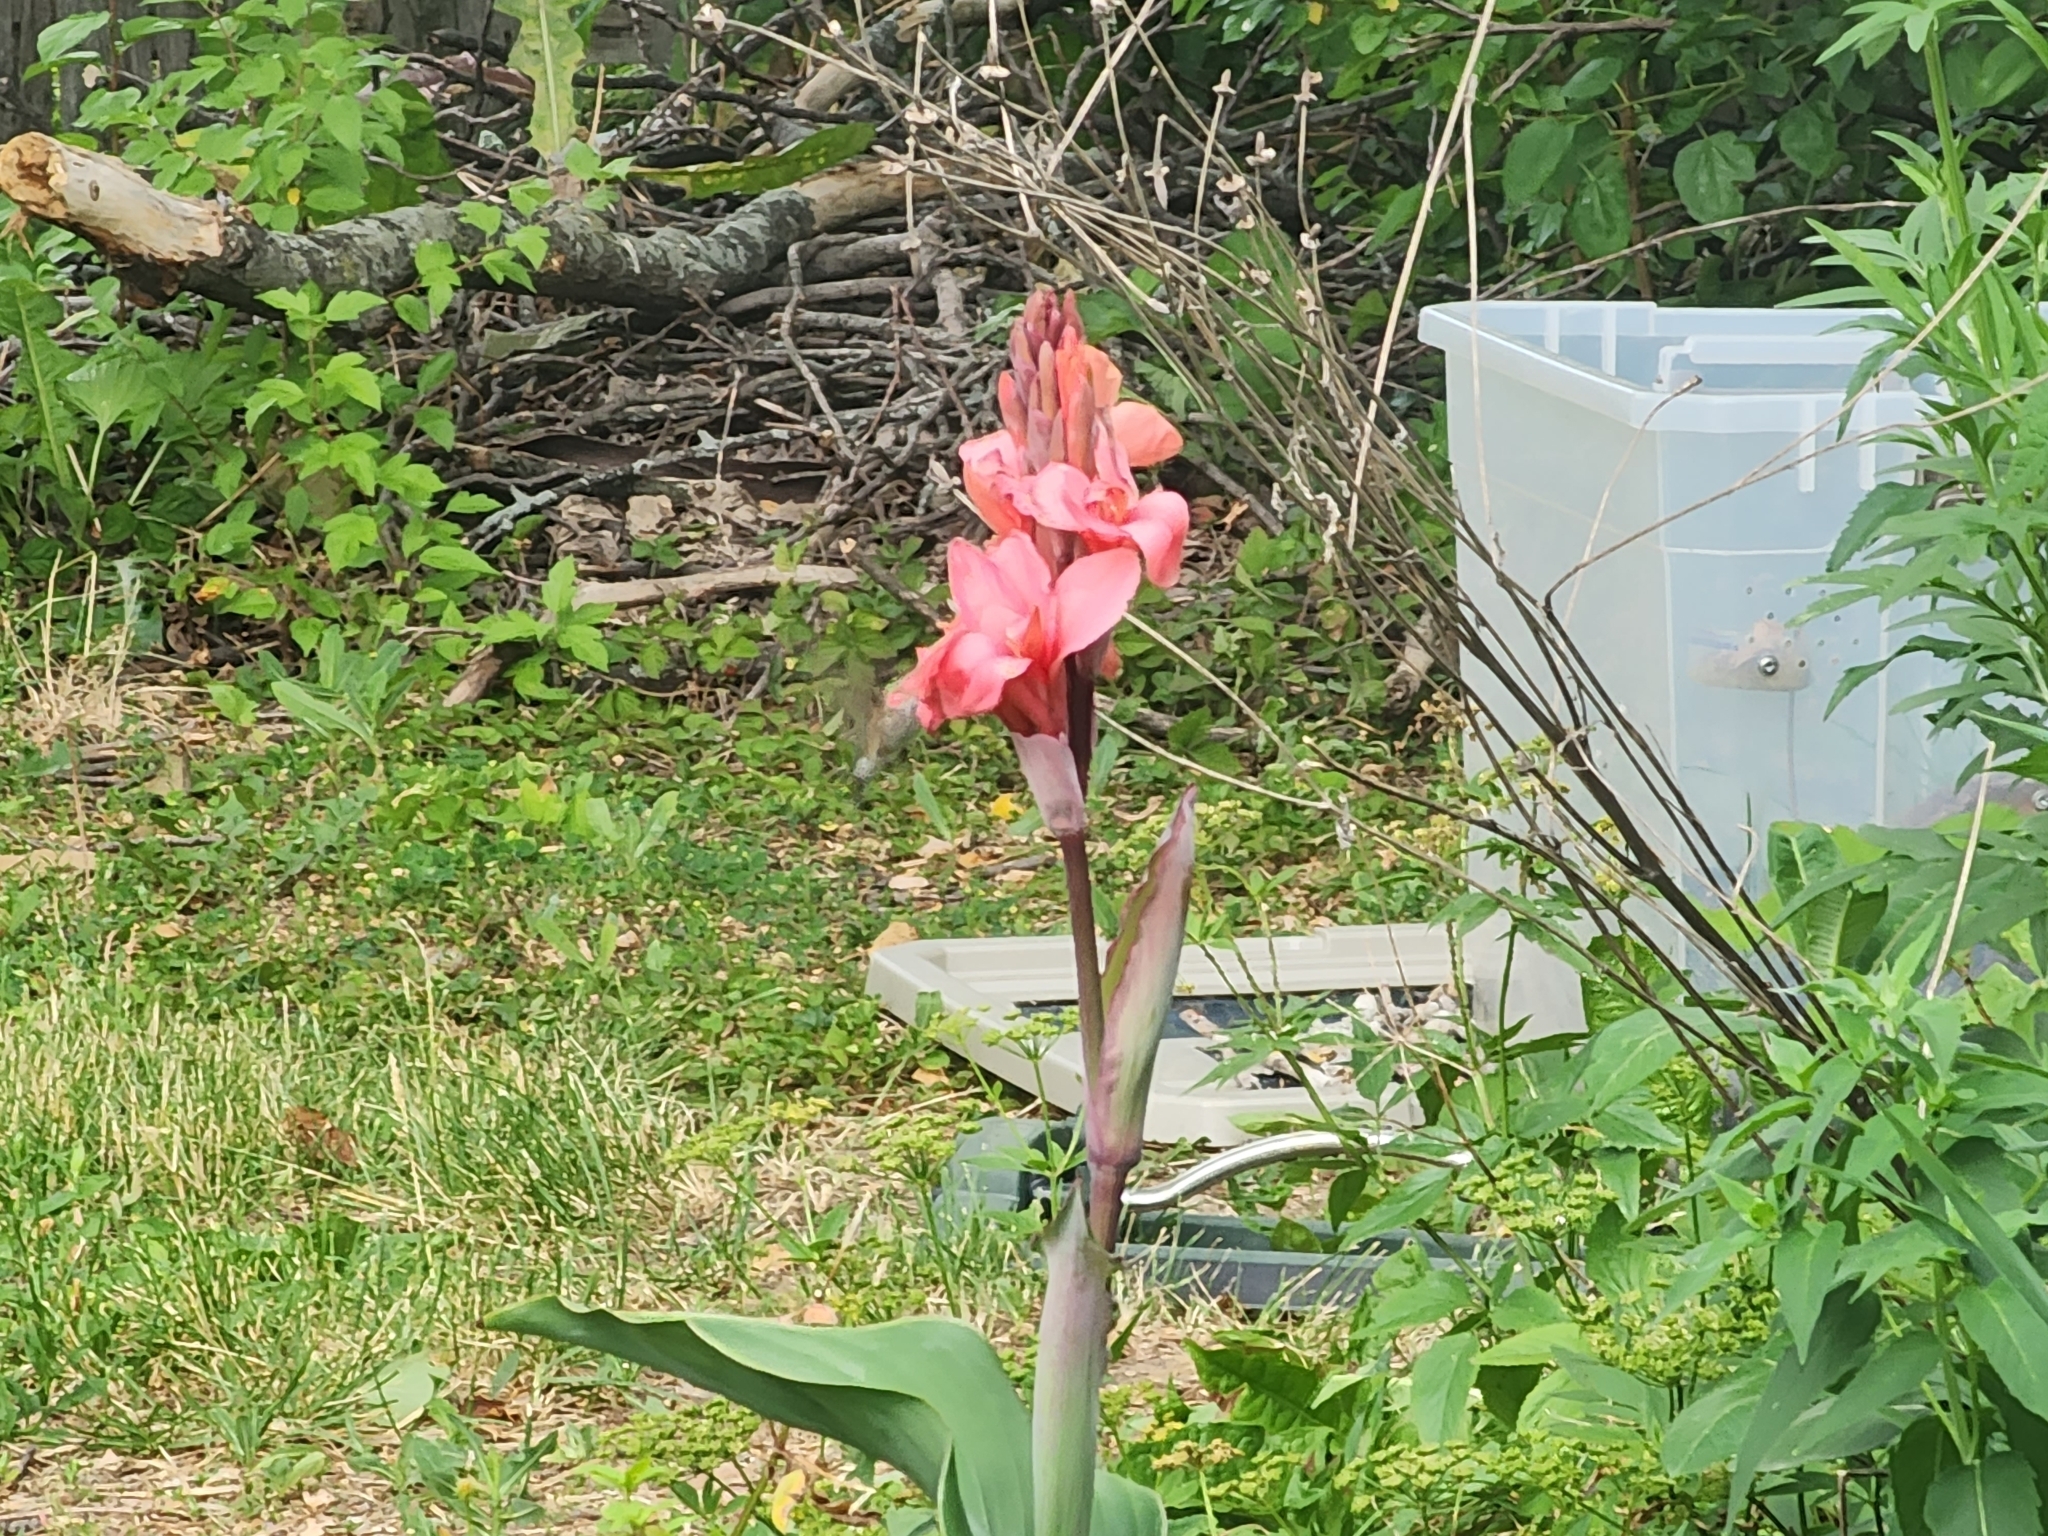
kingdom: Animalia
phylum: Chordata
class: Aves
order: Apodiformes
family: Trochilidae
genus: Archilochus
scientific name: Archilochus colubris
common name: Ruby-throated hummingbird
